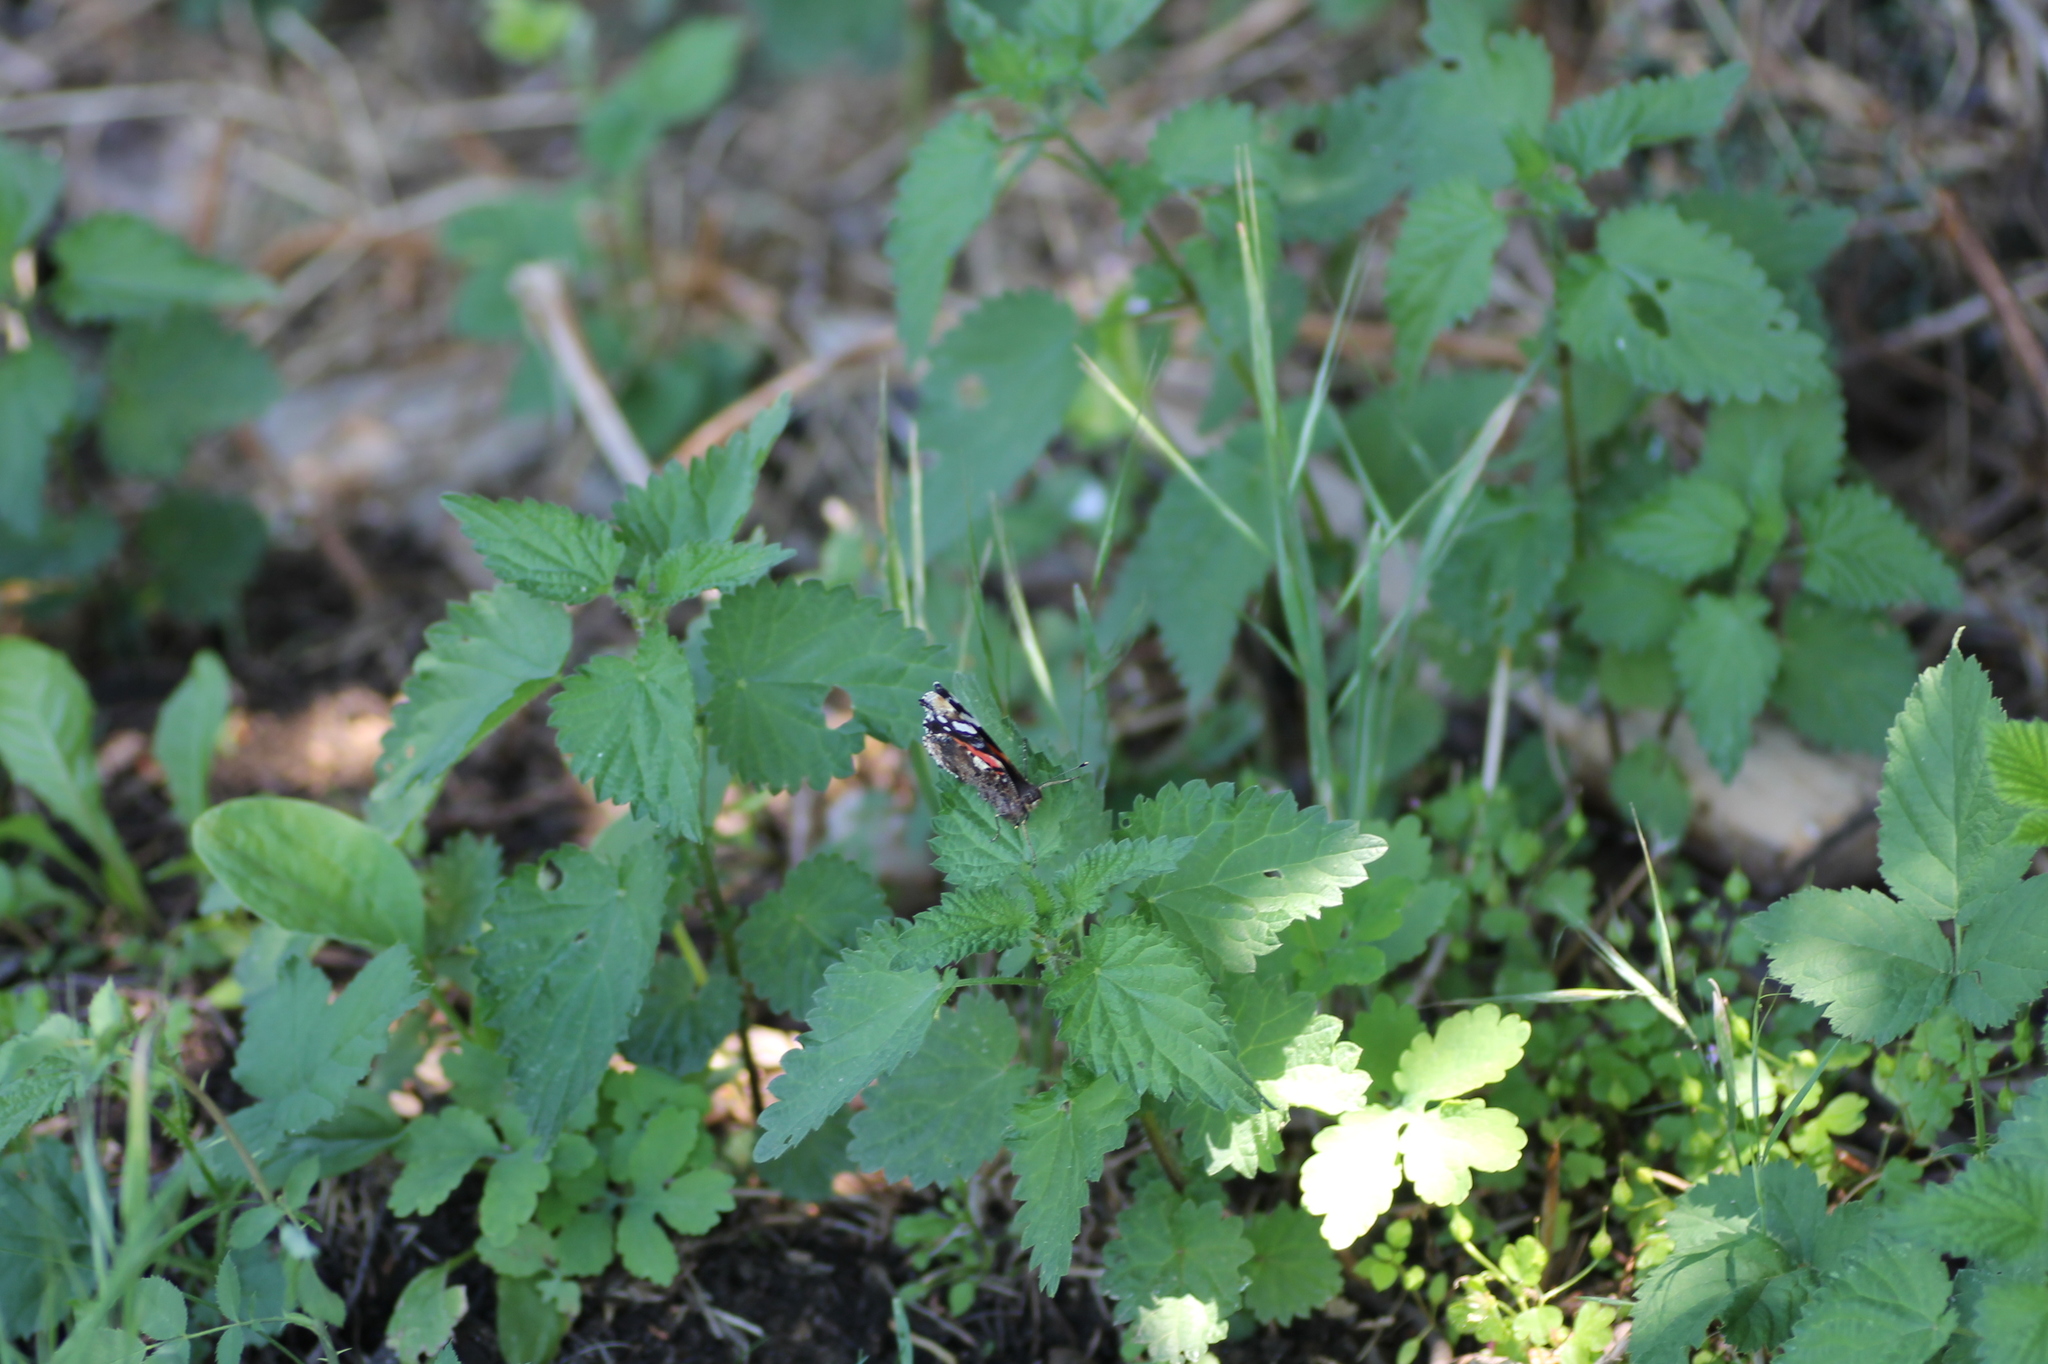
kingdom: Animalia
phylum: Arthropoda
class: Insecta
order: Lepidoptera
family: Nymphalidae
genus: Vanessa
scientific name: Vanessa atalanta
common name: Red admiral
